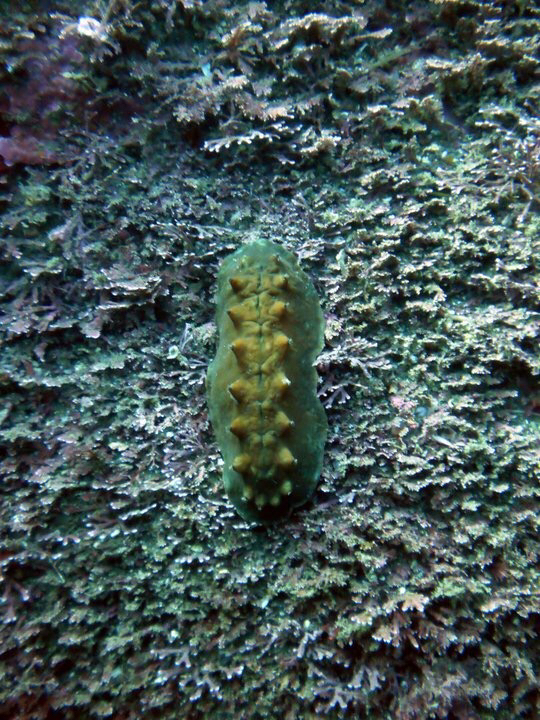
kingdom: Animalia
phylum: Mollusca
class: Polyplacophora
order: Chitonida
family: Acanthochitonidae
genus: Cryptoconchus
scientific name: Cryptoconchus porosus
